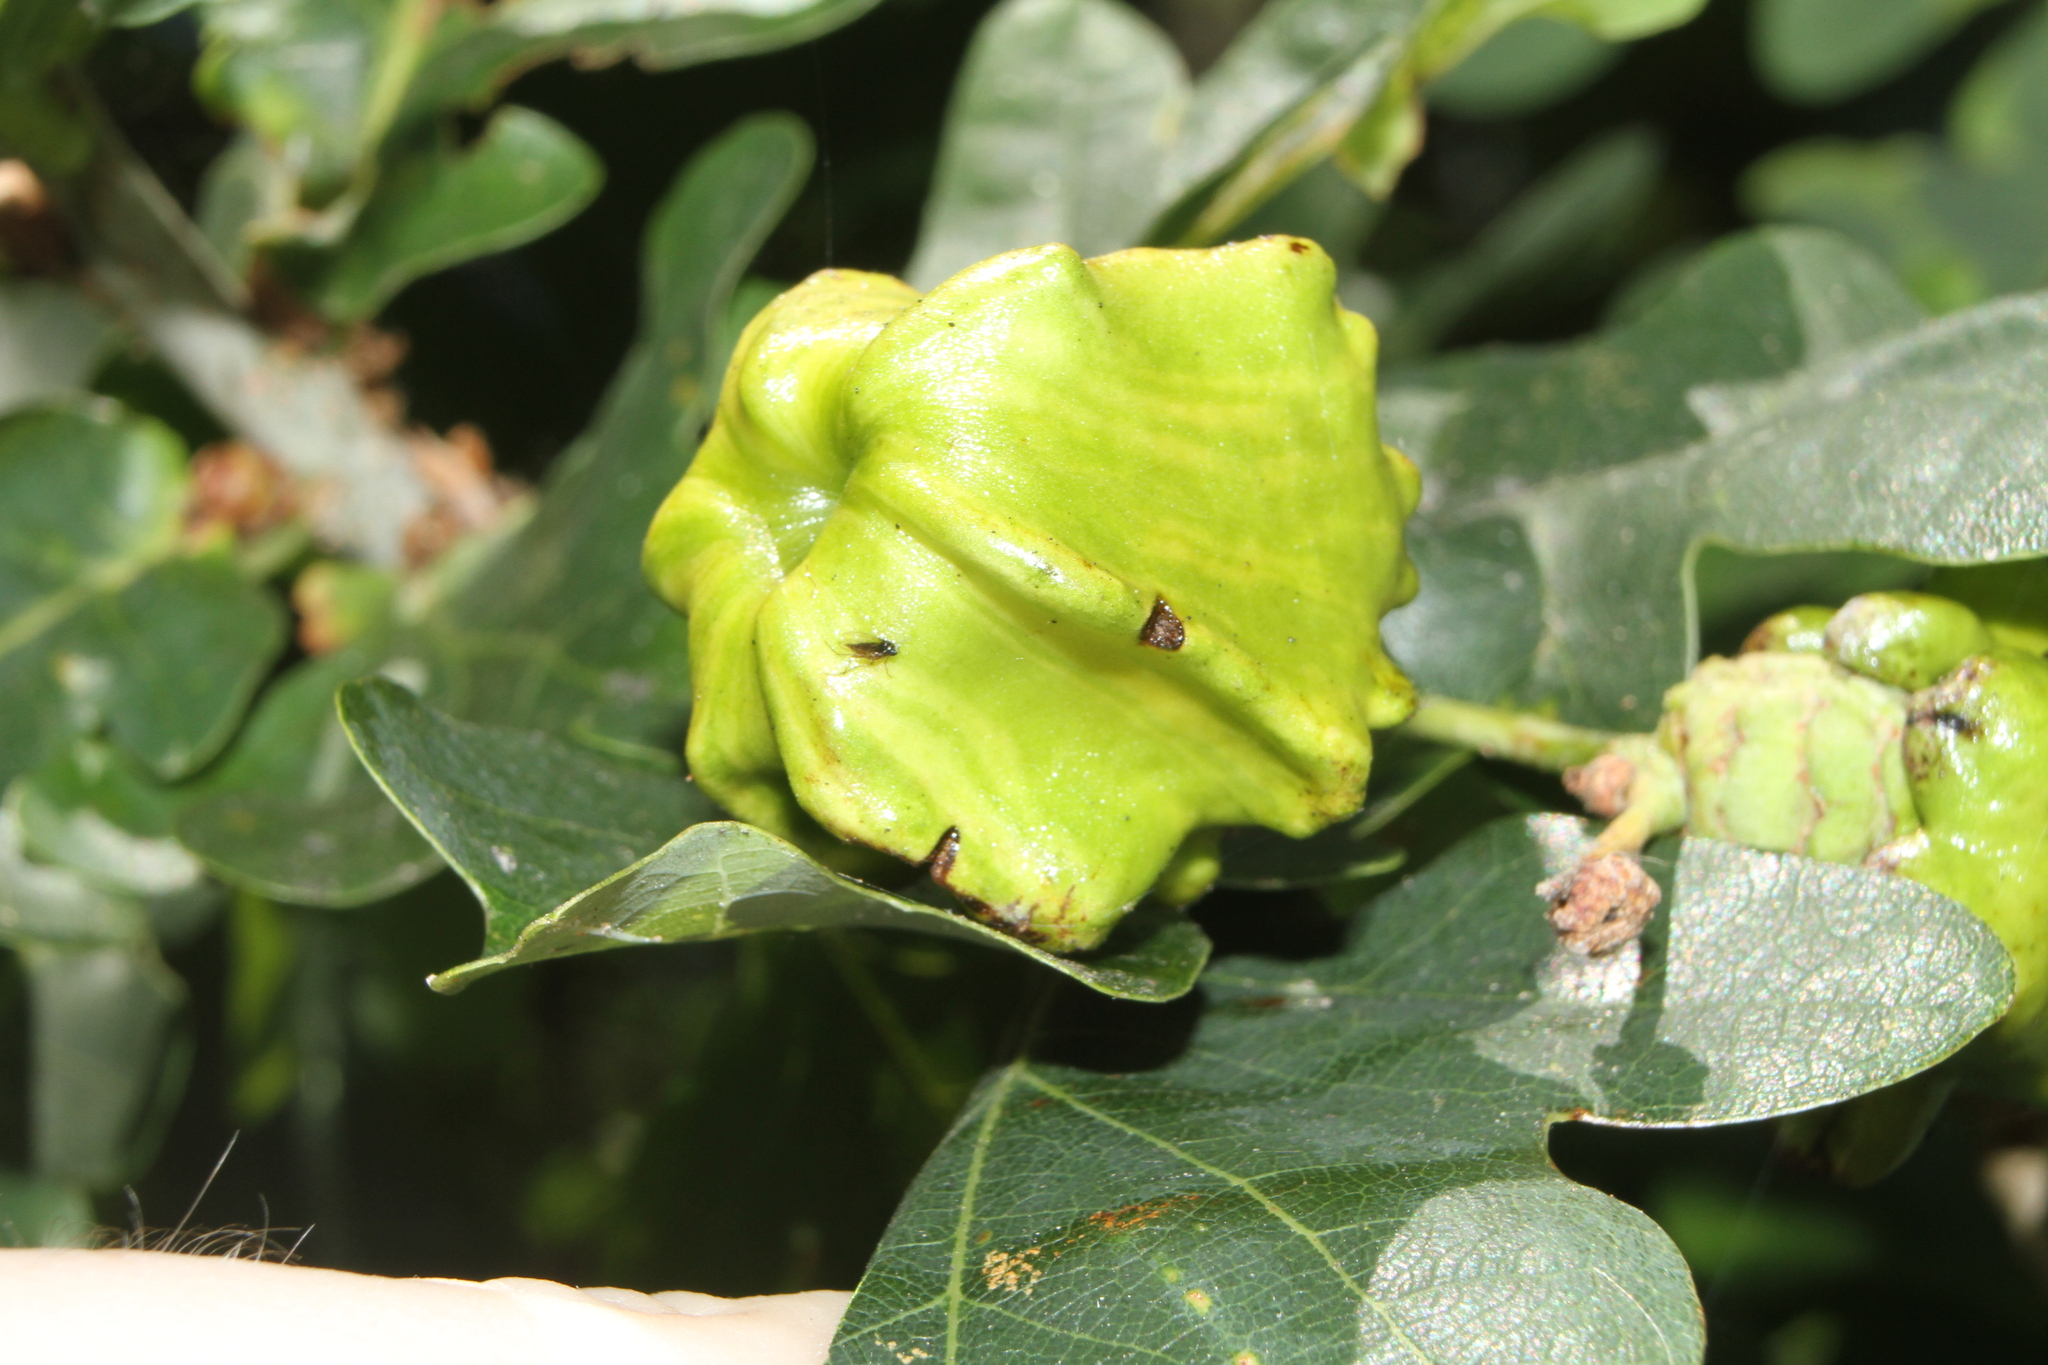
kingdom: Animalia
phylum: Arthropoda
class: Insecta
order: Hymenoptera
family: Cynipidae
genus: Andricus
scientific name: Andricus quercuscalicis
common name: Knopper gall
